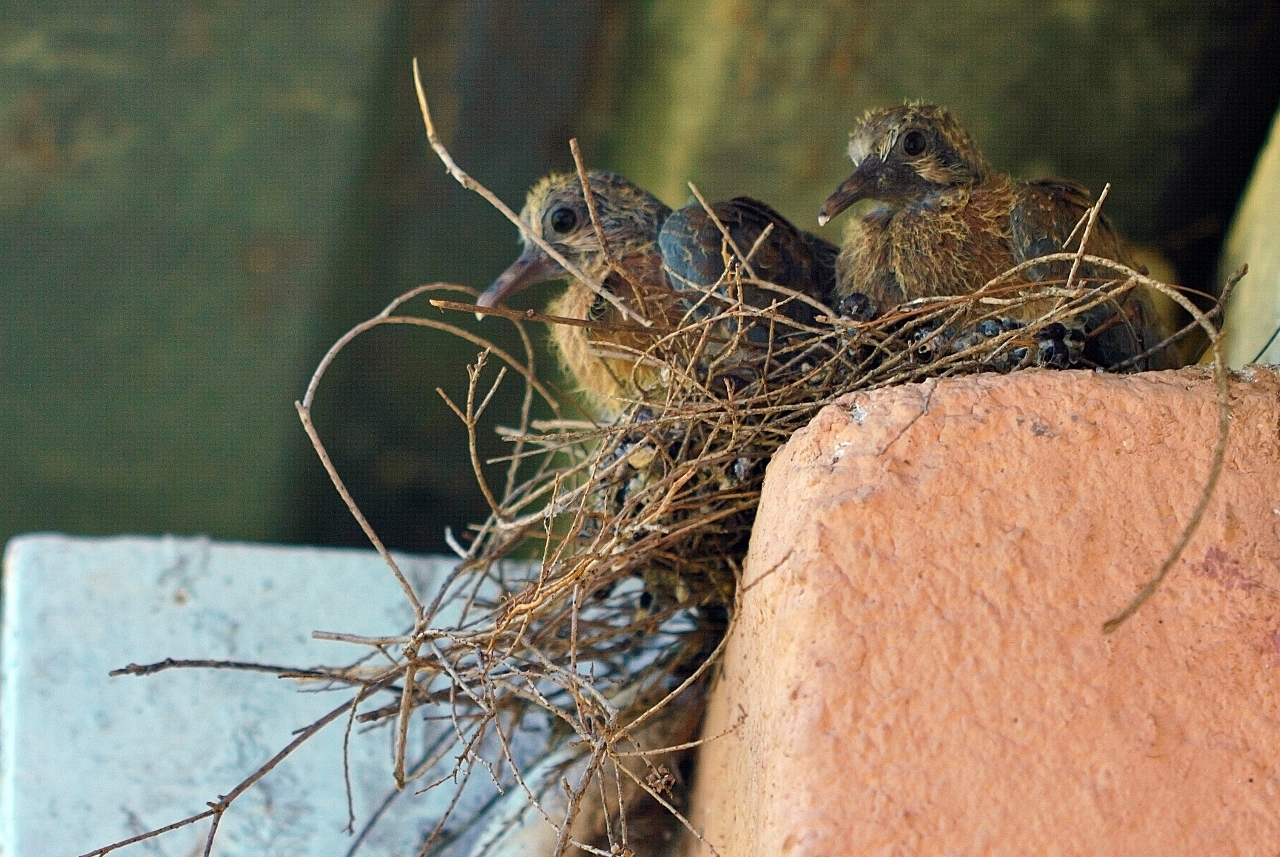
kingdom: Animalia
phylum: Chordata
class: Aves
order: Columbiformes
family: Columbidae
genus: Spilopelia
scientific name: Spilopelia senegalensis
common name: Laughing dove
